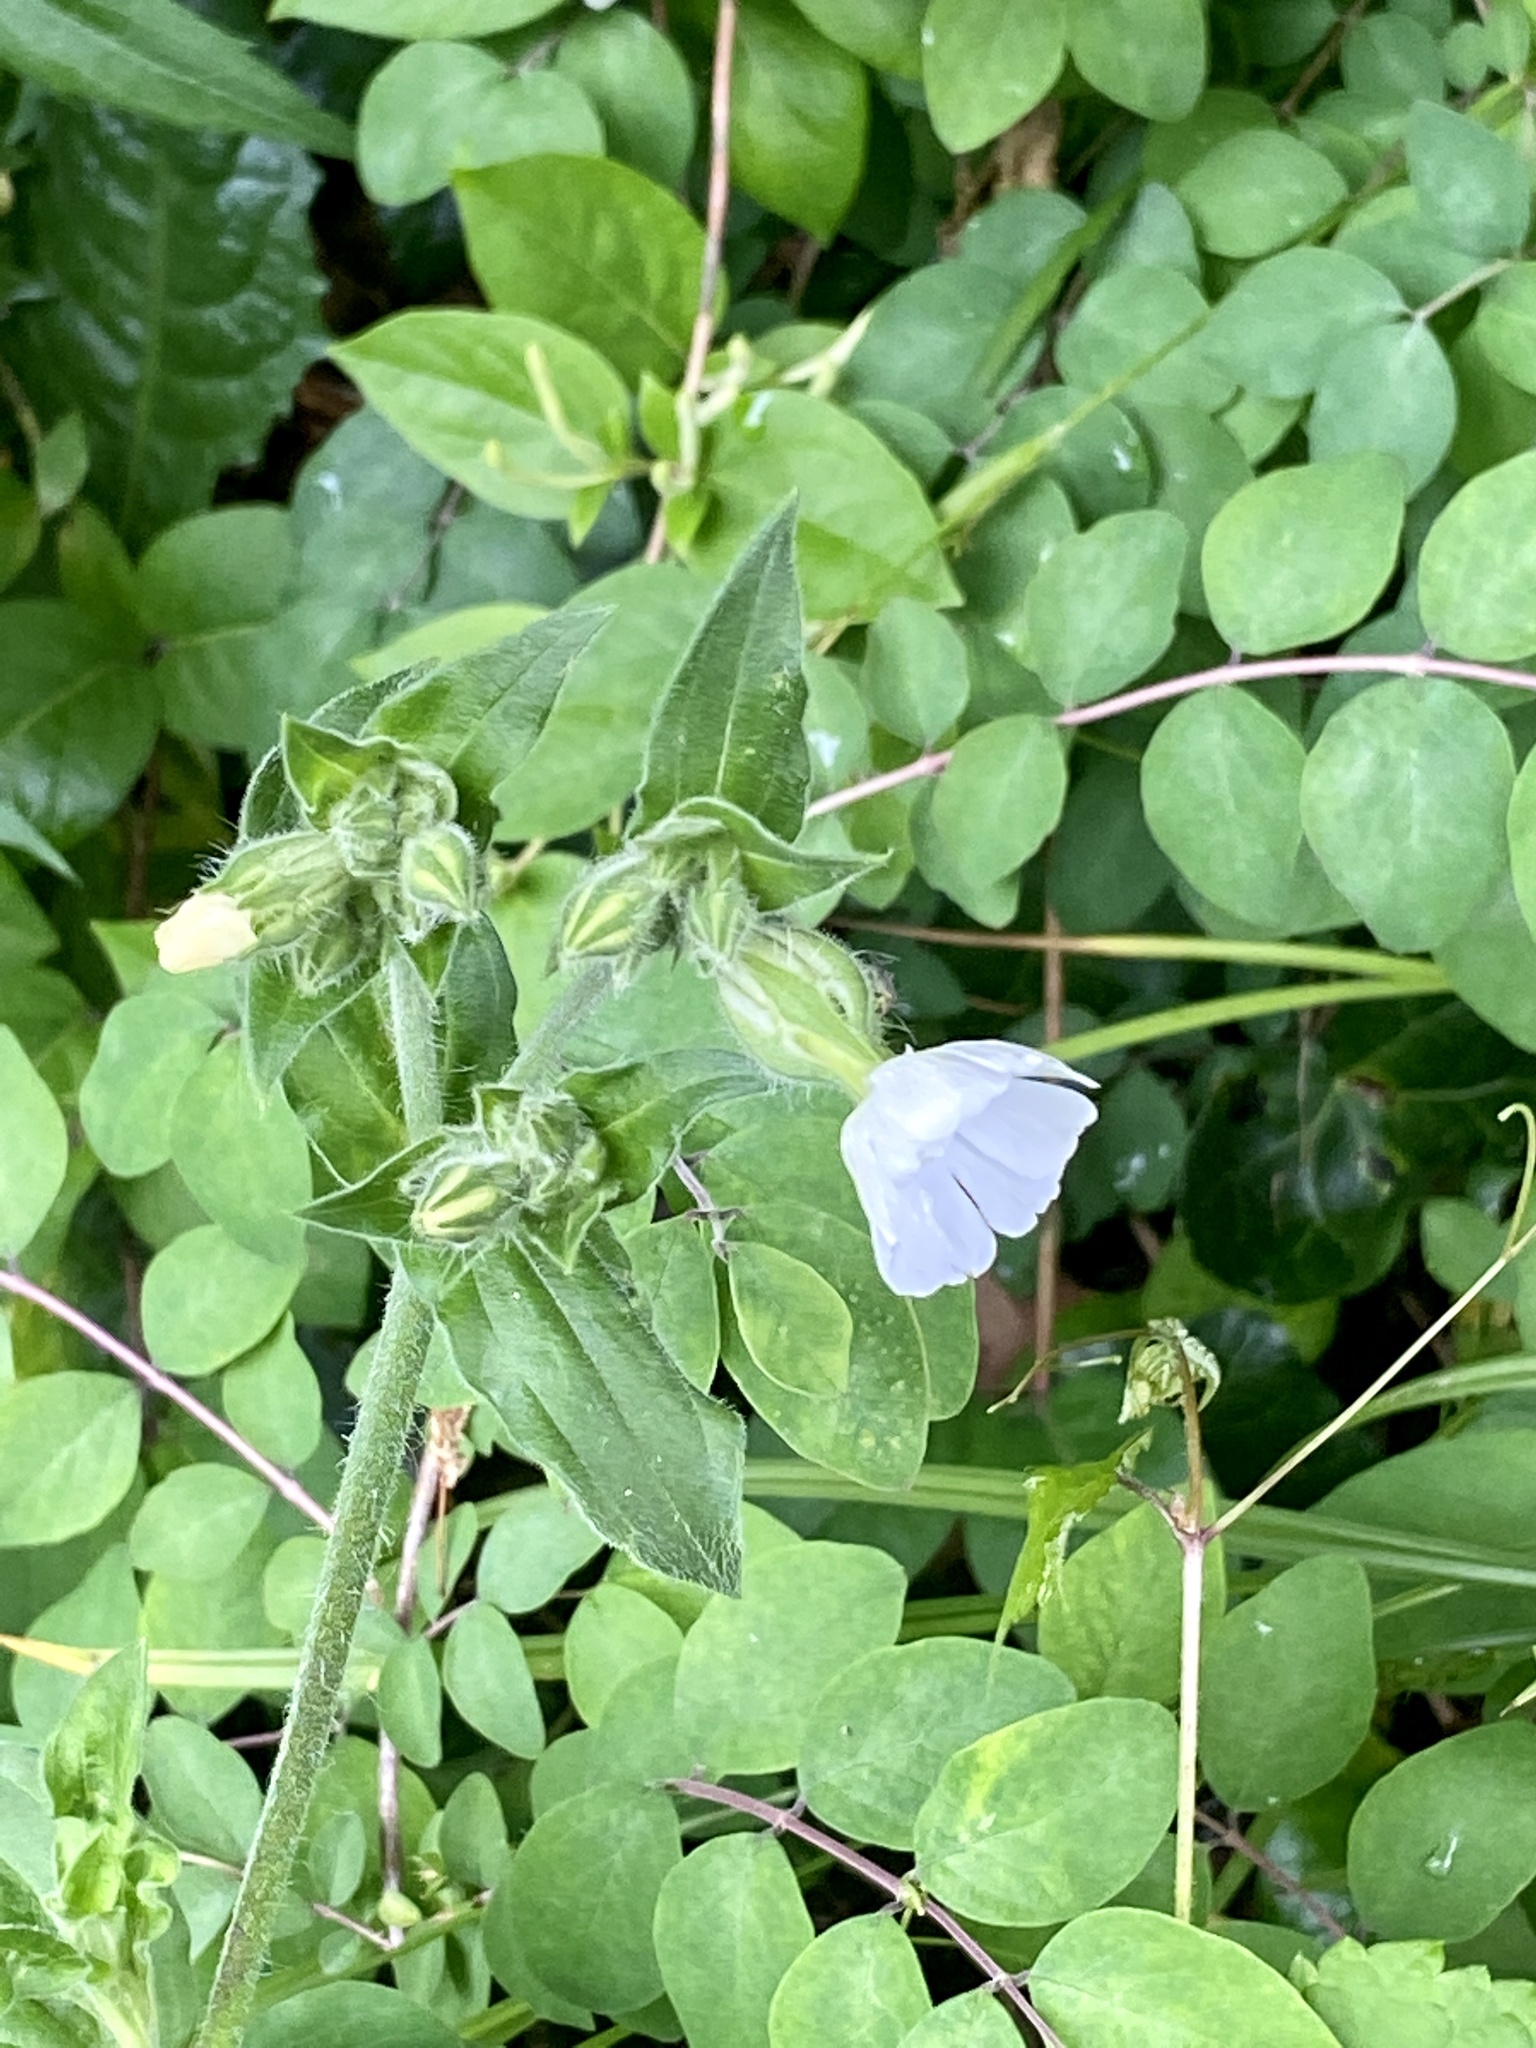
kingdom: Plantae
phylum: Tracheophyta
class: Magnoliopsida
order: Caryophyllales
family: Caryophyllaceae
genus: Silene
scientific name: Silene latifolia
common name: White campion
